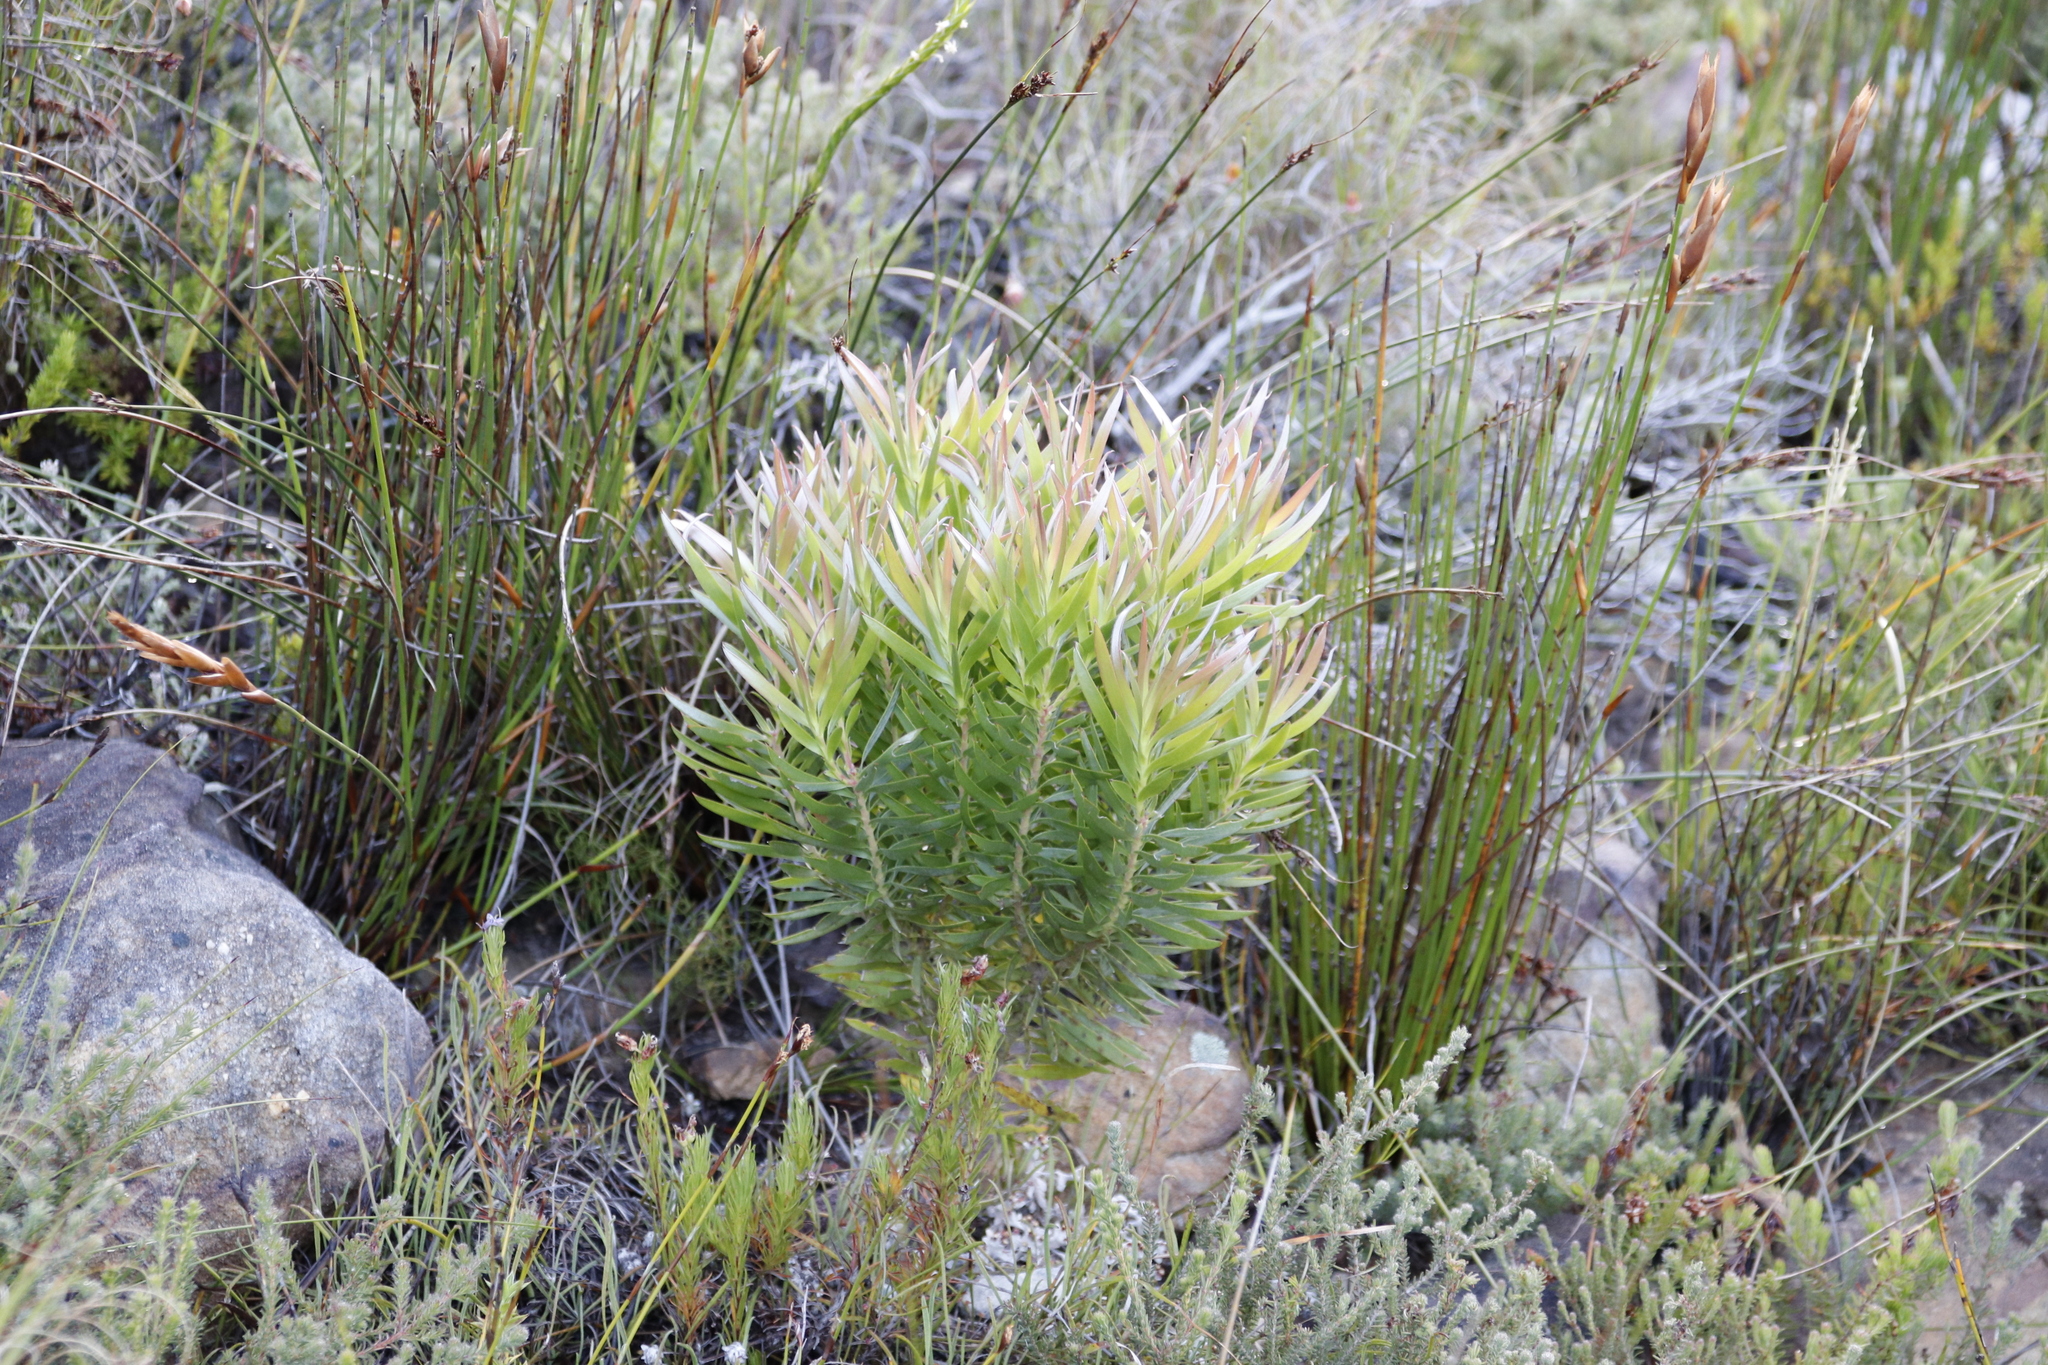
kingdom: Plantae
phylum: Tracheophyta
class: Magnoliopsida
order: Proteales
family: Proteaceae
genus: Leucadendron
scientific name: Leucadendron xanthoconus
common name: Sickle-leaf conebush
